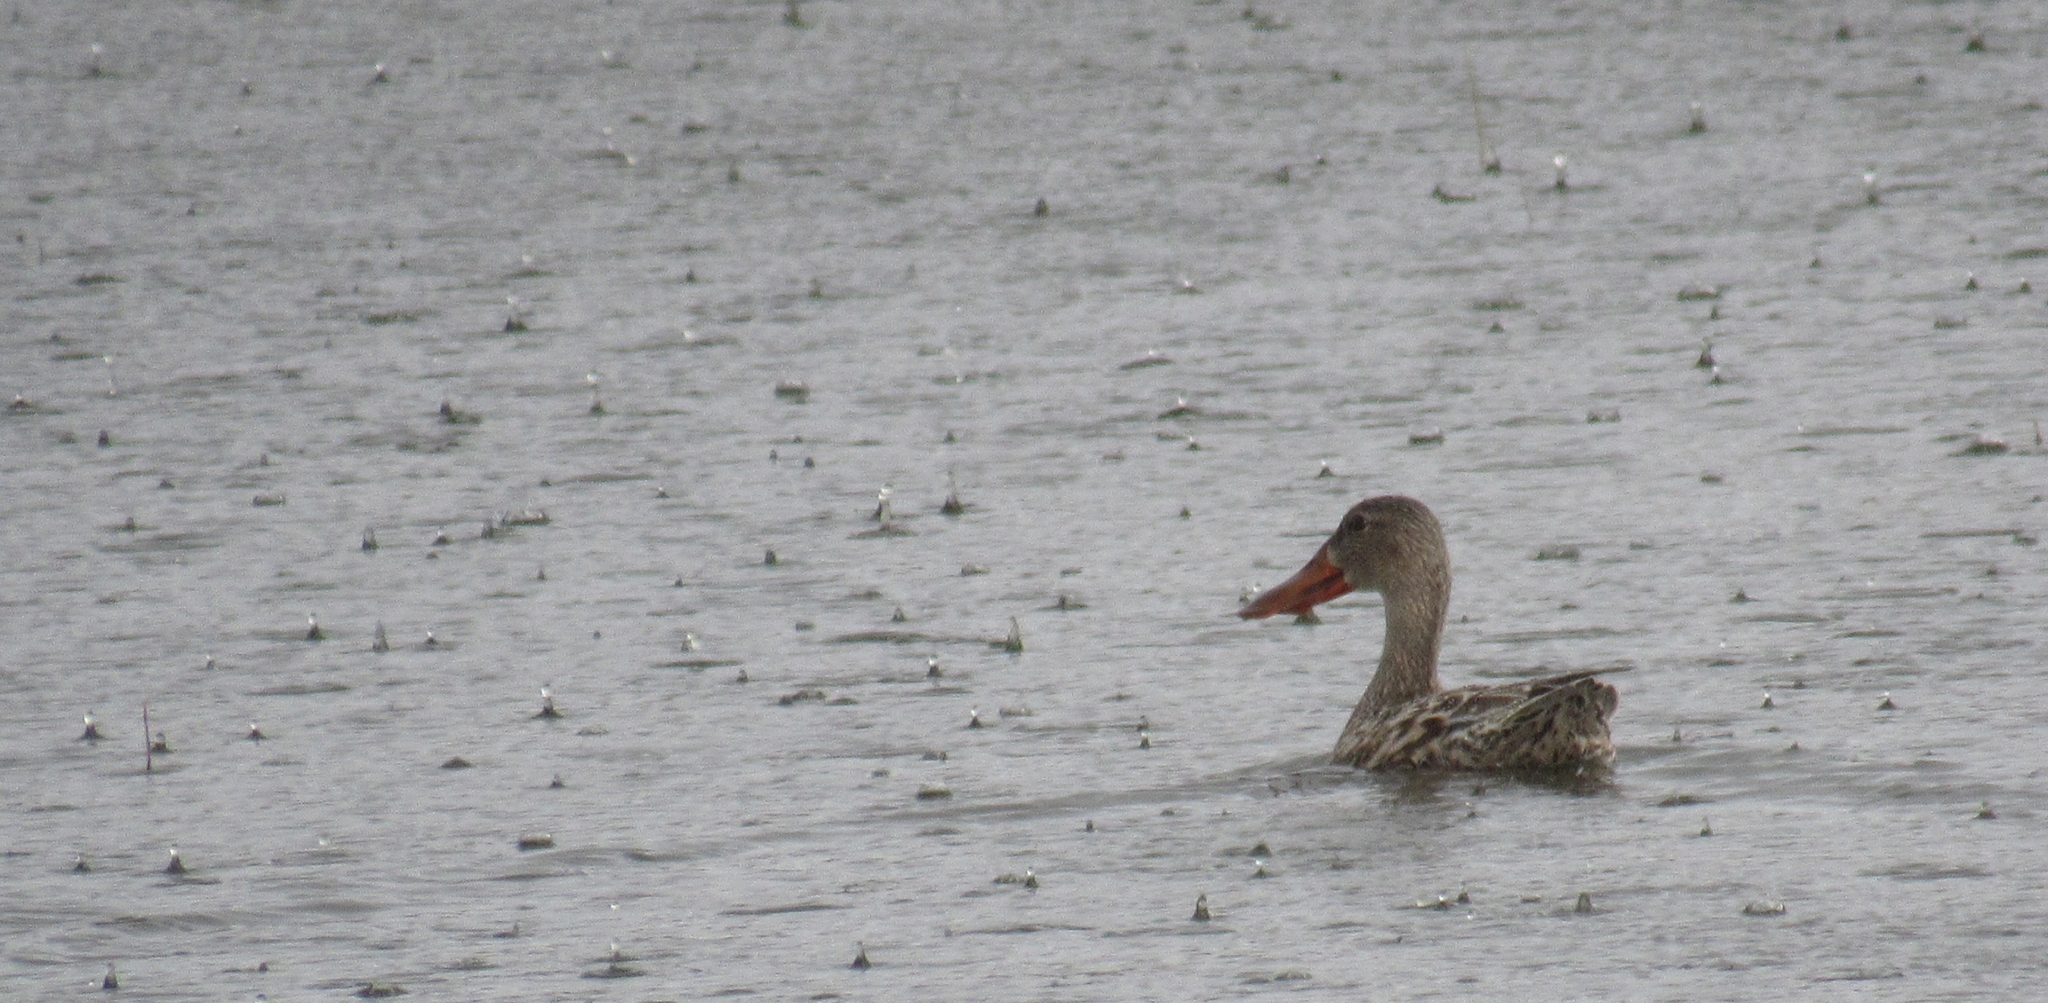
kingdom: Animalia
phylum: Chordata
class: Aves
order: Anseriformes
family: Anatidae
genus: Spatula
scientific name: Spatula clypeata
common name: Northern shoveler
